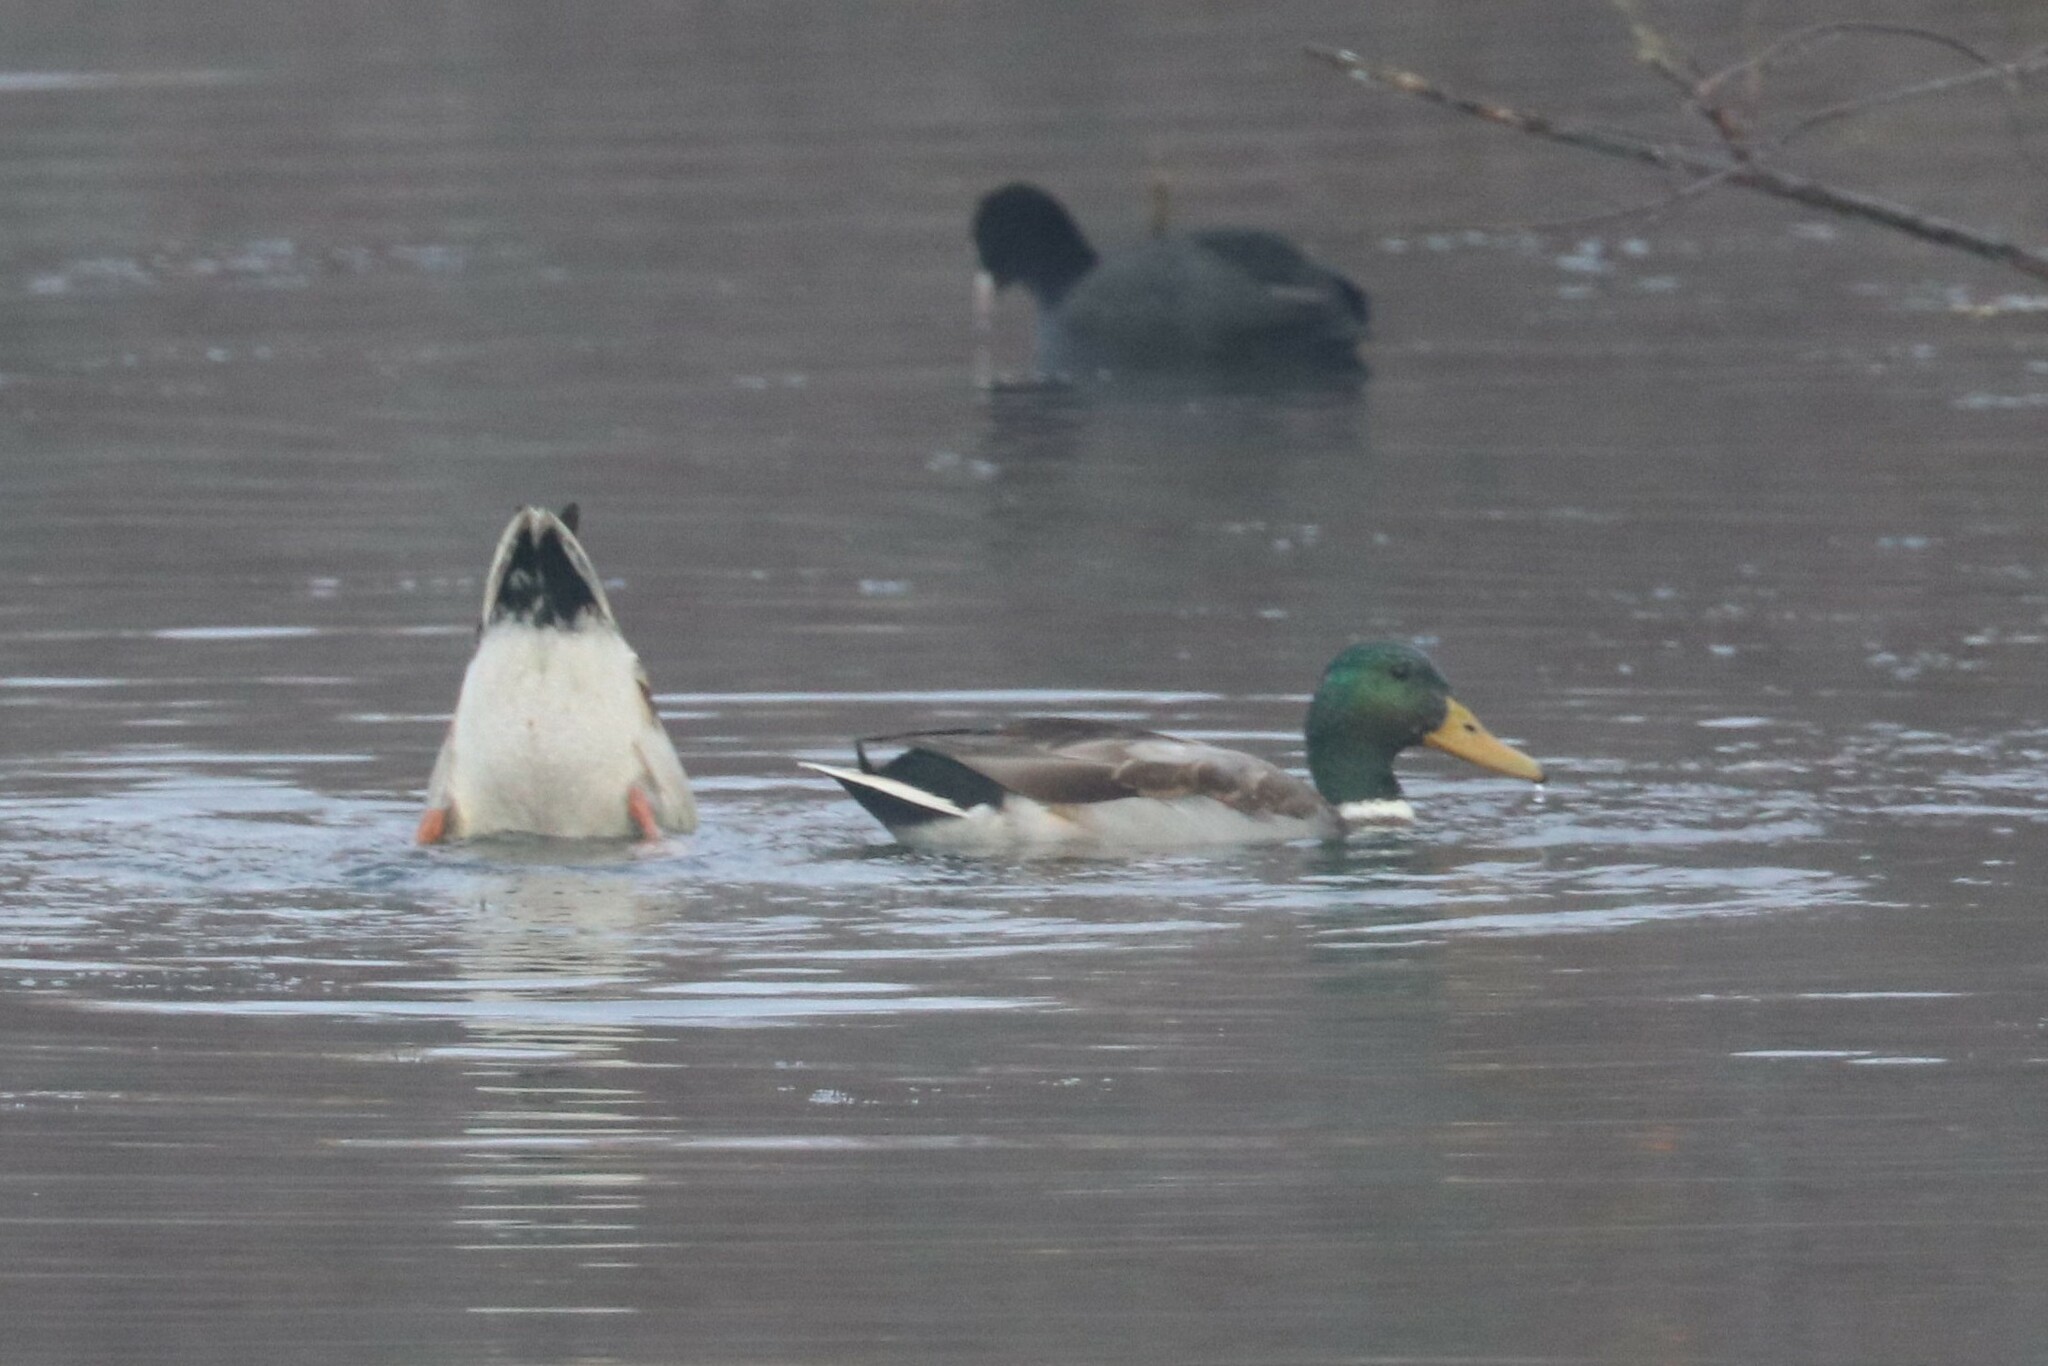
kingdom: Animalia
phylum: Chordata
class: Aves
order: Anseriformes
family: Anatidae
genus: Anas
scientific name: Anas platyrhynchos
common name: Mallard
